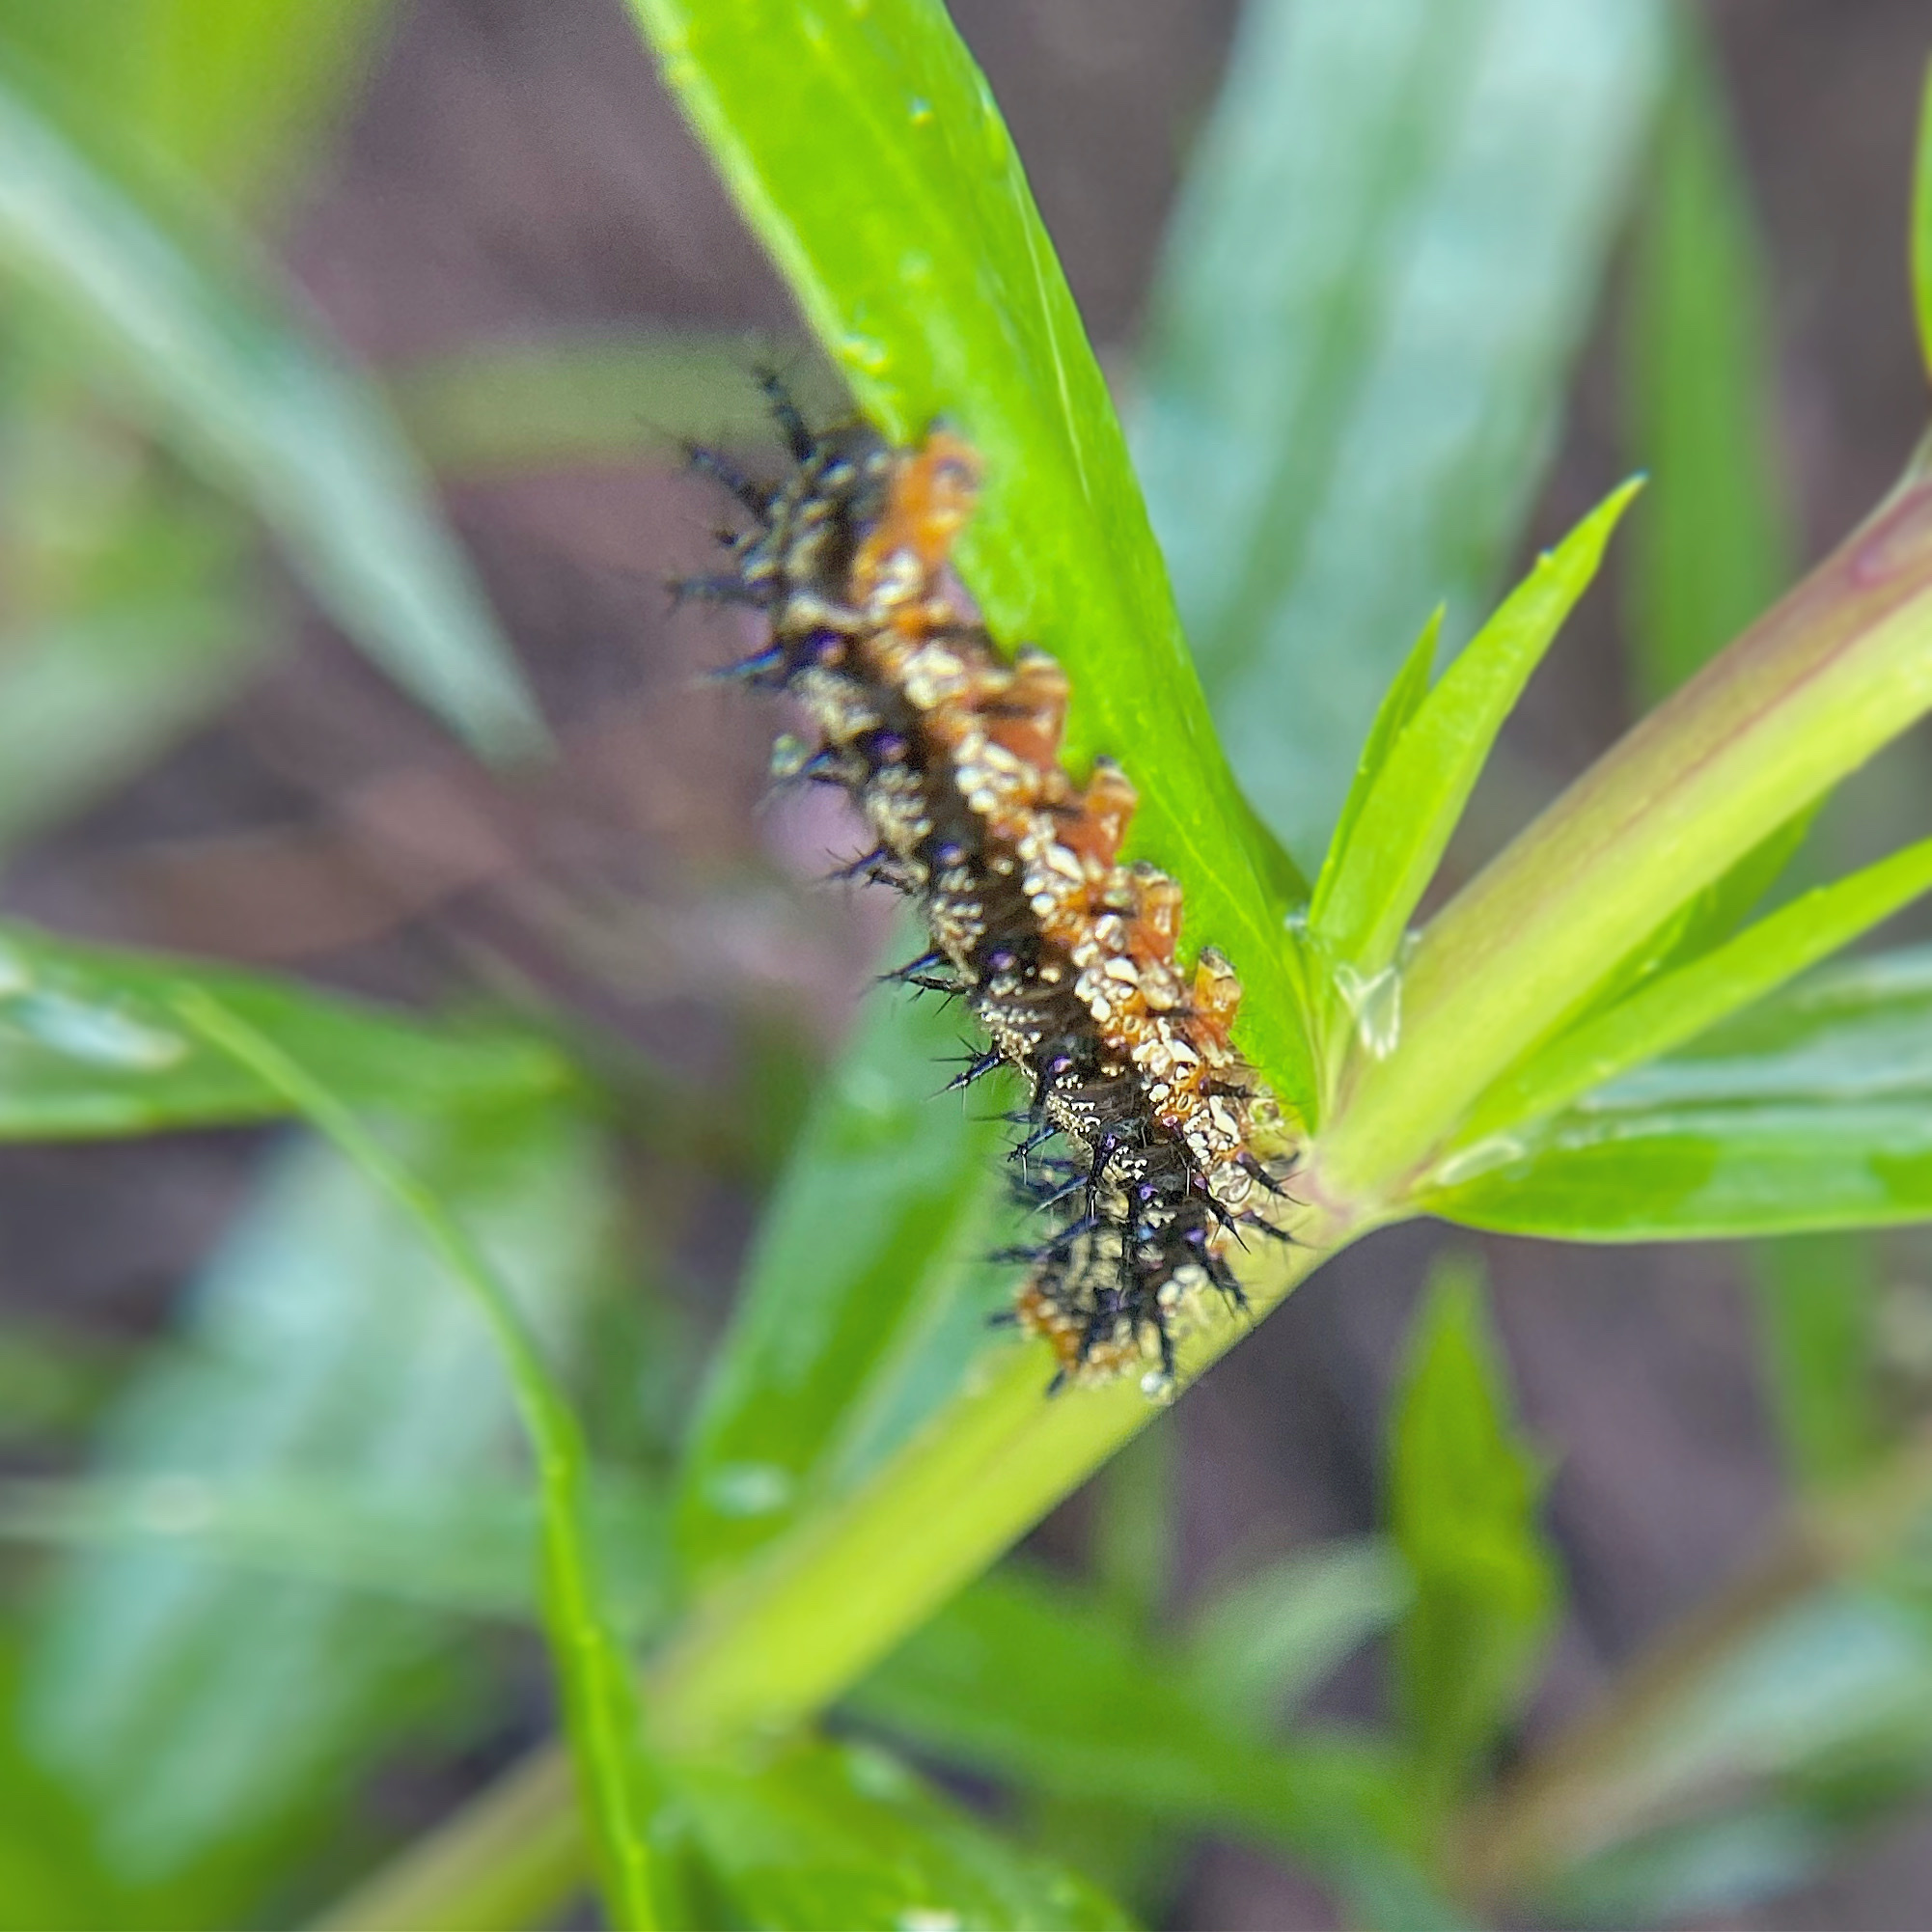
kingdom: Animalia
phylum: Arthropoda
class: Insecta
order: Lepidoptera
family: Nymphalidae
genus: Junonia
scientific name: Junonia coenia
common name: Common buckeye
